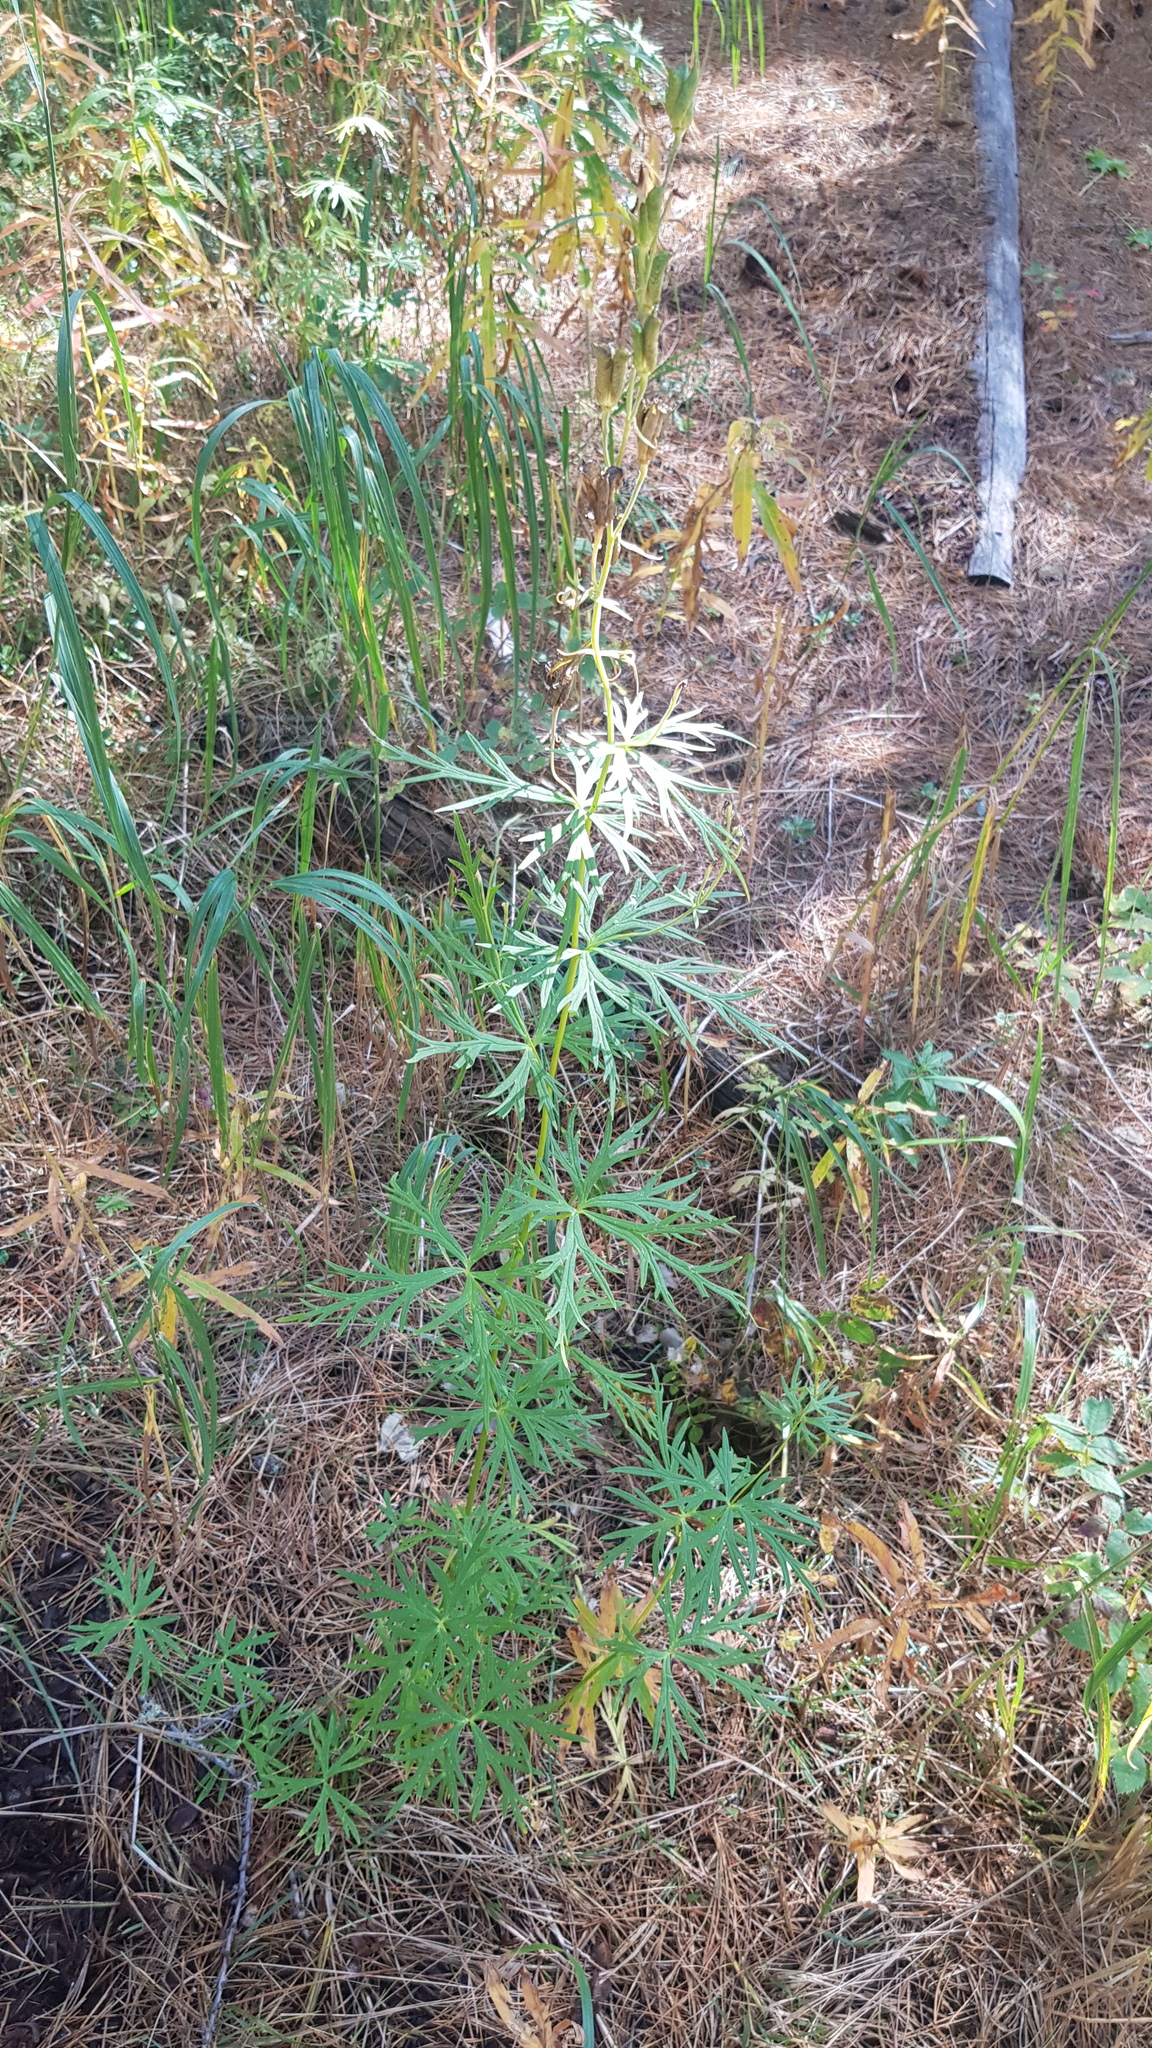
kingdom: Plantae
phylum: Tracheophyta
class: Magnoliopsida
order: Ranunculales
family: Ranunculaceae
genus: Aconitum
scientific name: Aconitum baicalense
